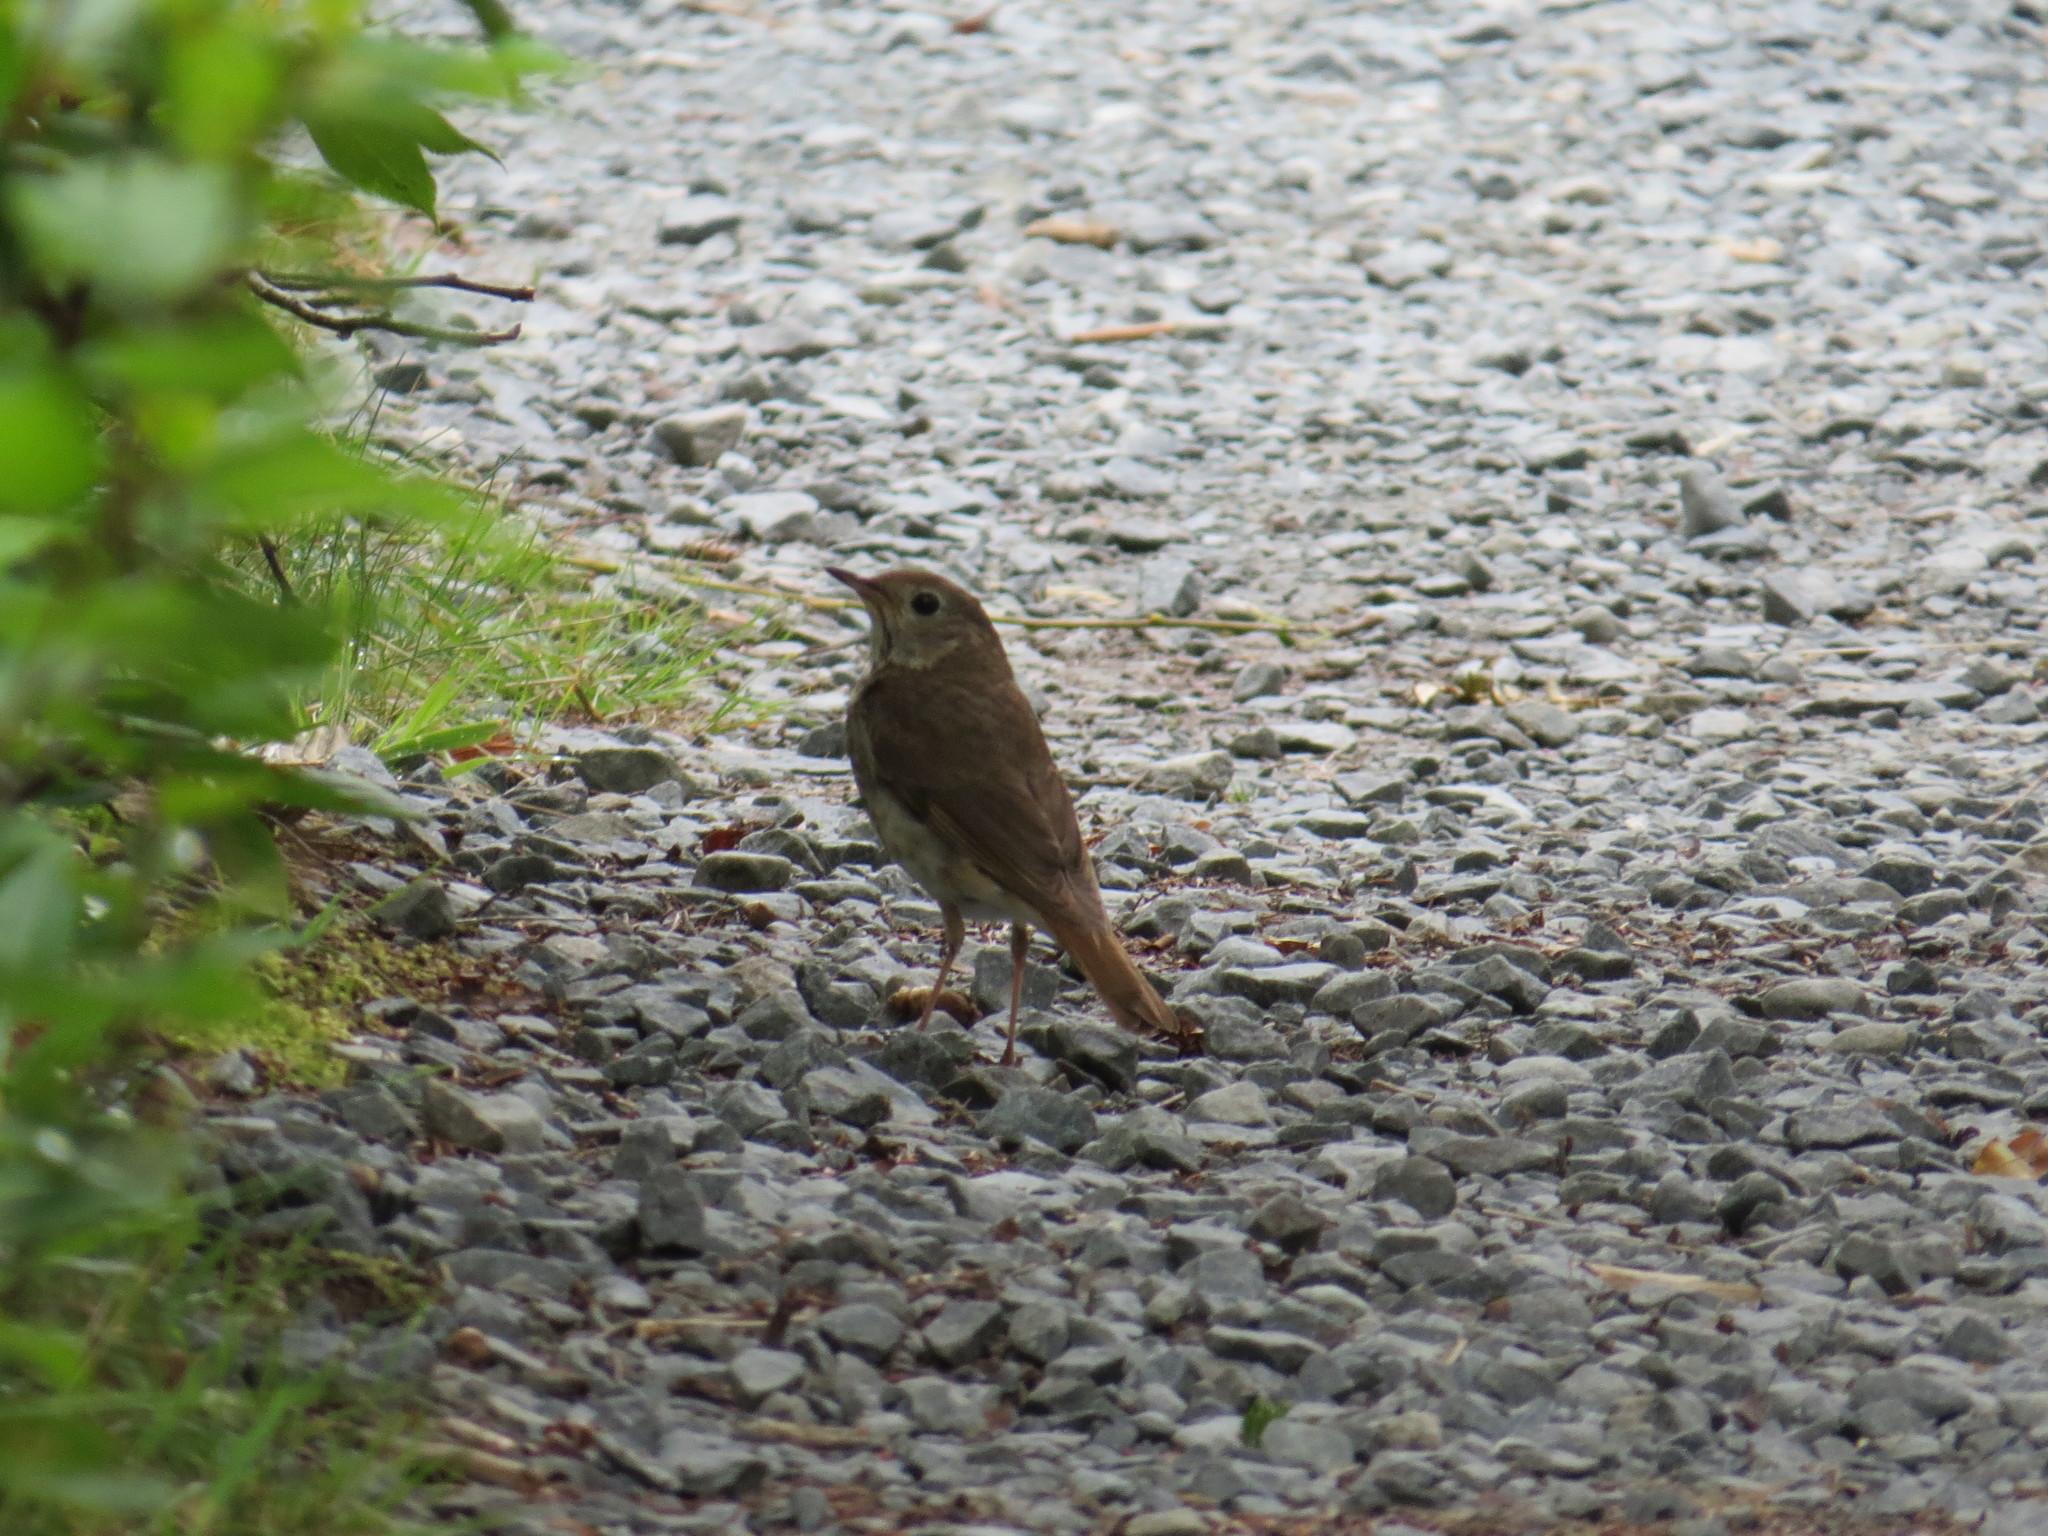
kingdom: Animalia
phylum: Chordata
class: Aves
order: Passeriformes
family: Turdidae
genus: Catharus
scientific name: Catharus guttatus
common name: Hermit thrush
